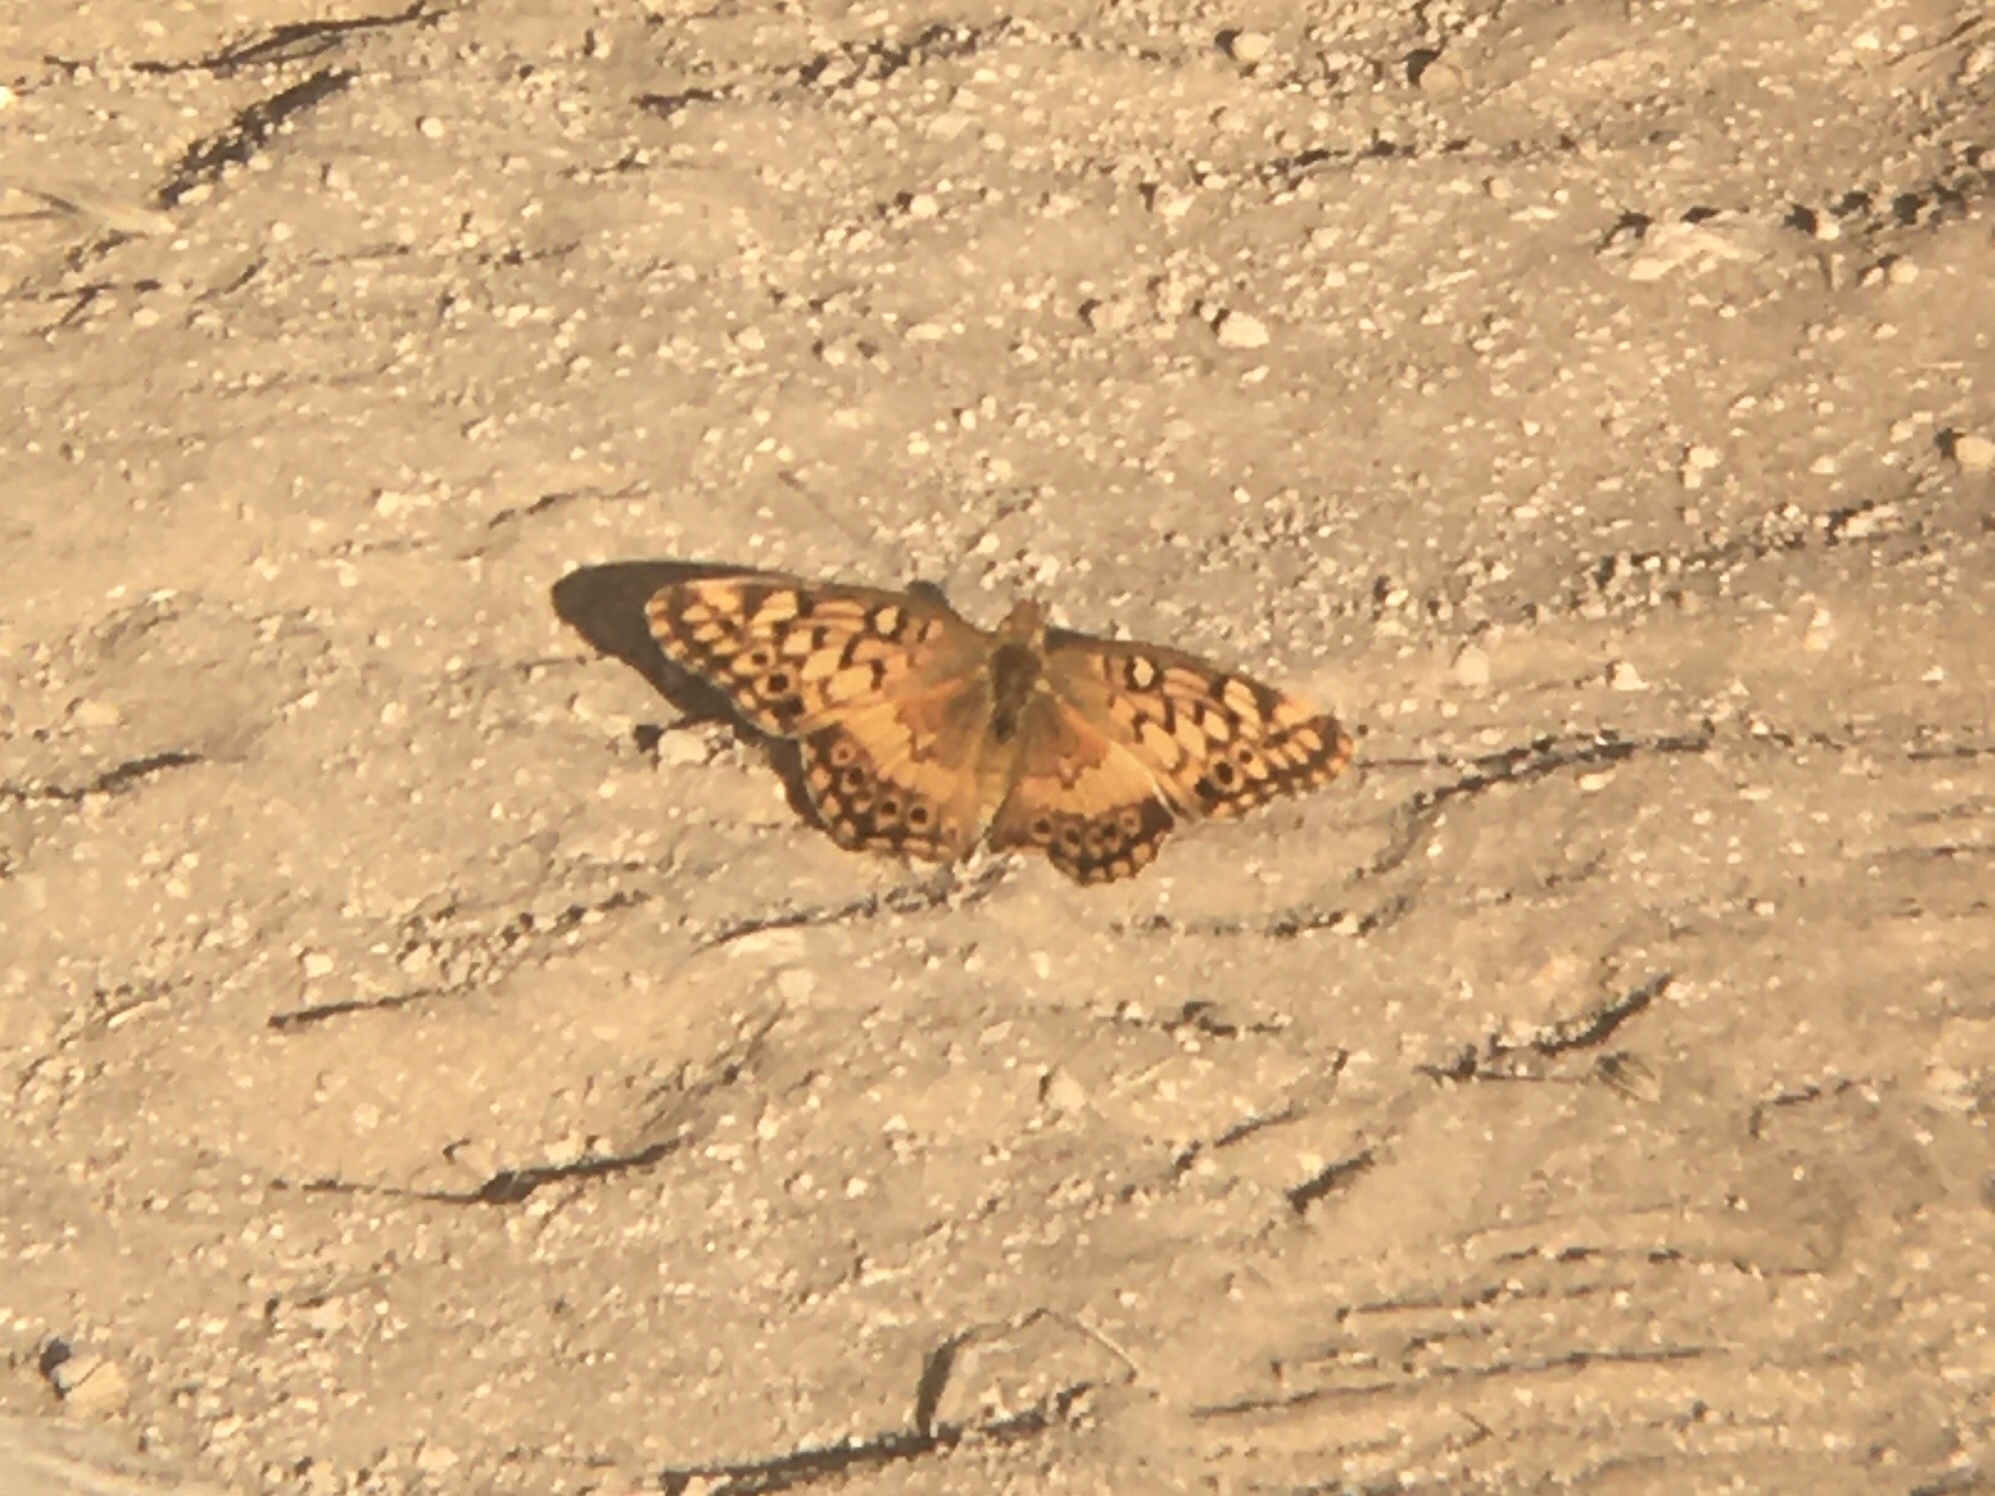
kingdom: Animalia
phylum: Arthropoda
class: Insecta
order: Lepidoptera
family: Nymphalidae
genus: Euptoieta
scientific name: Euptoieta hortensia
